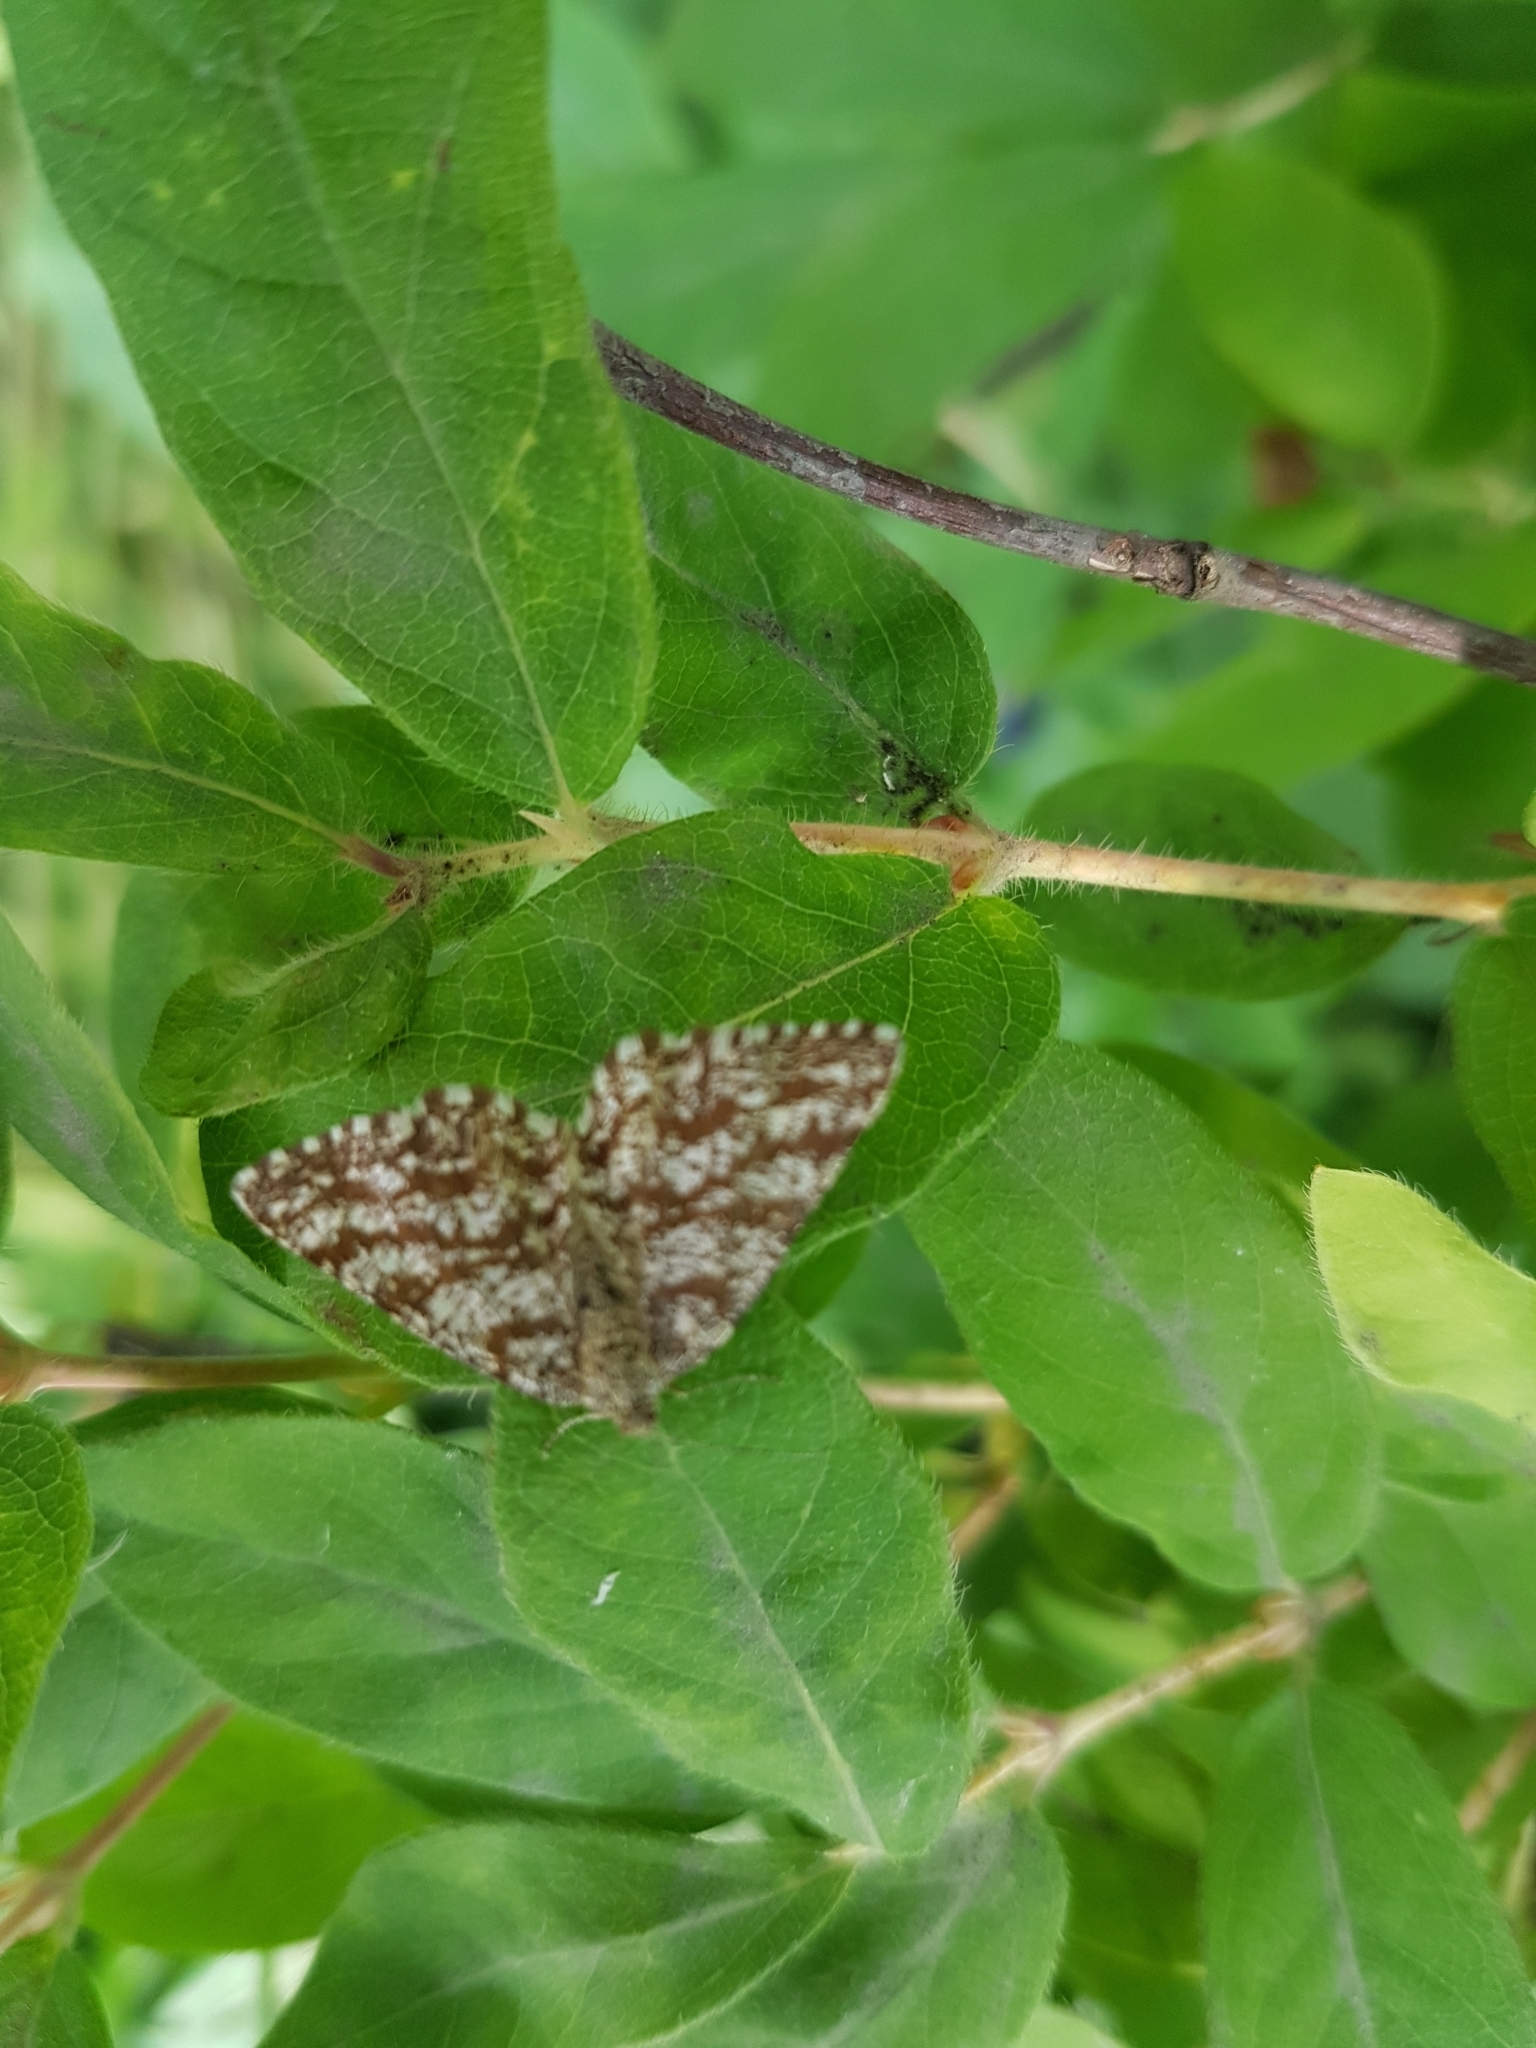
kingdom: Animalia
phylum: Arthropoda
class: Insecta
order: Lepidoptera
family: Geometridae
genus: Ematurga
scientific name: Ematurga atomaria
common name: Common heath
